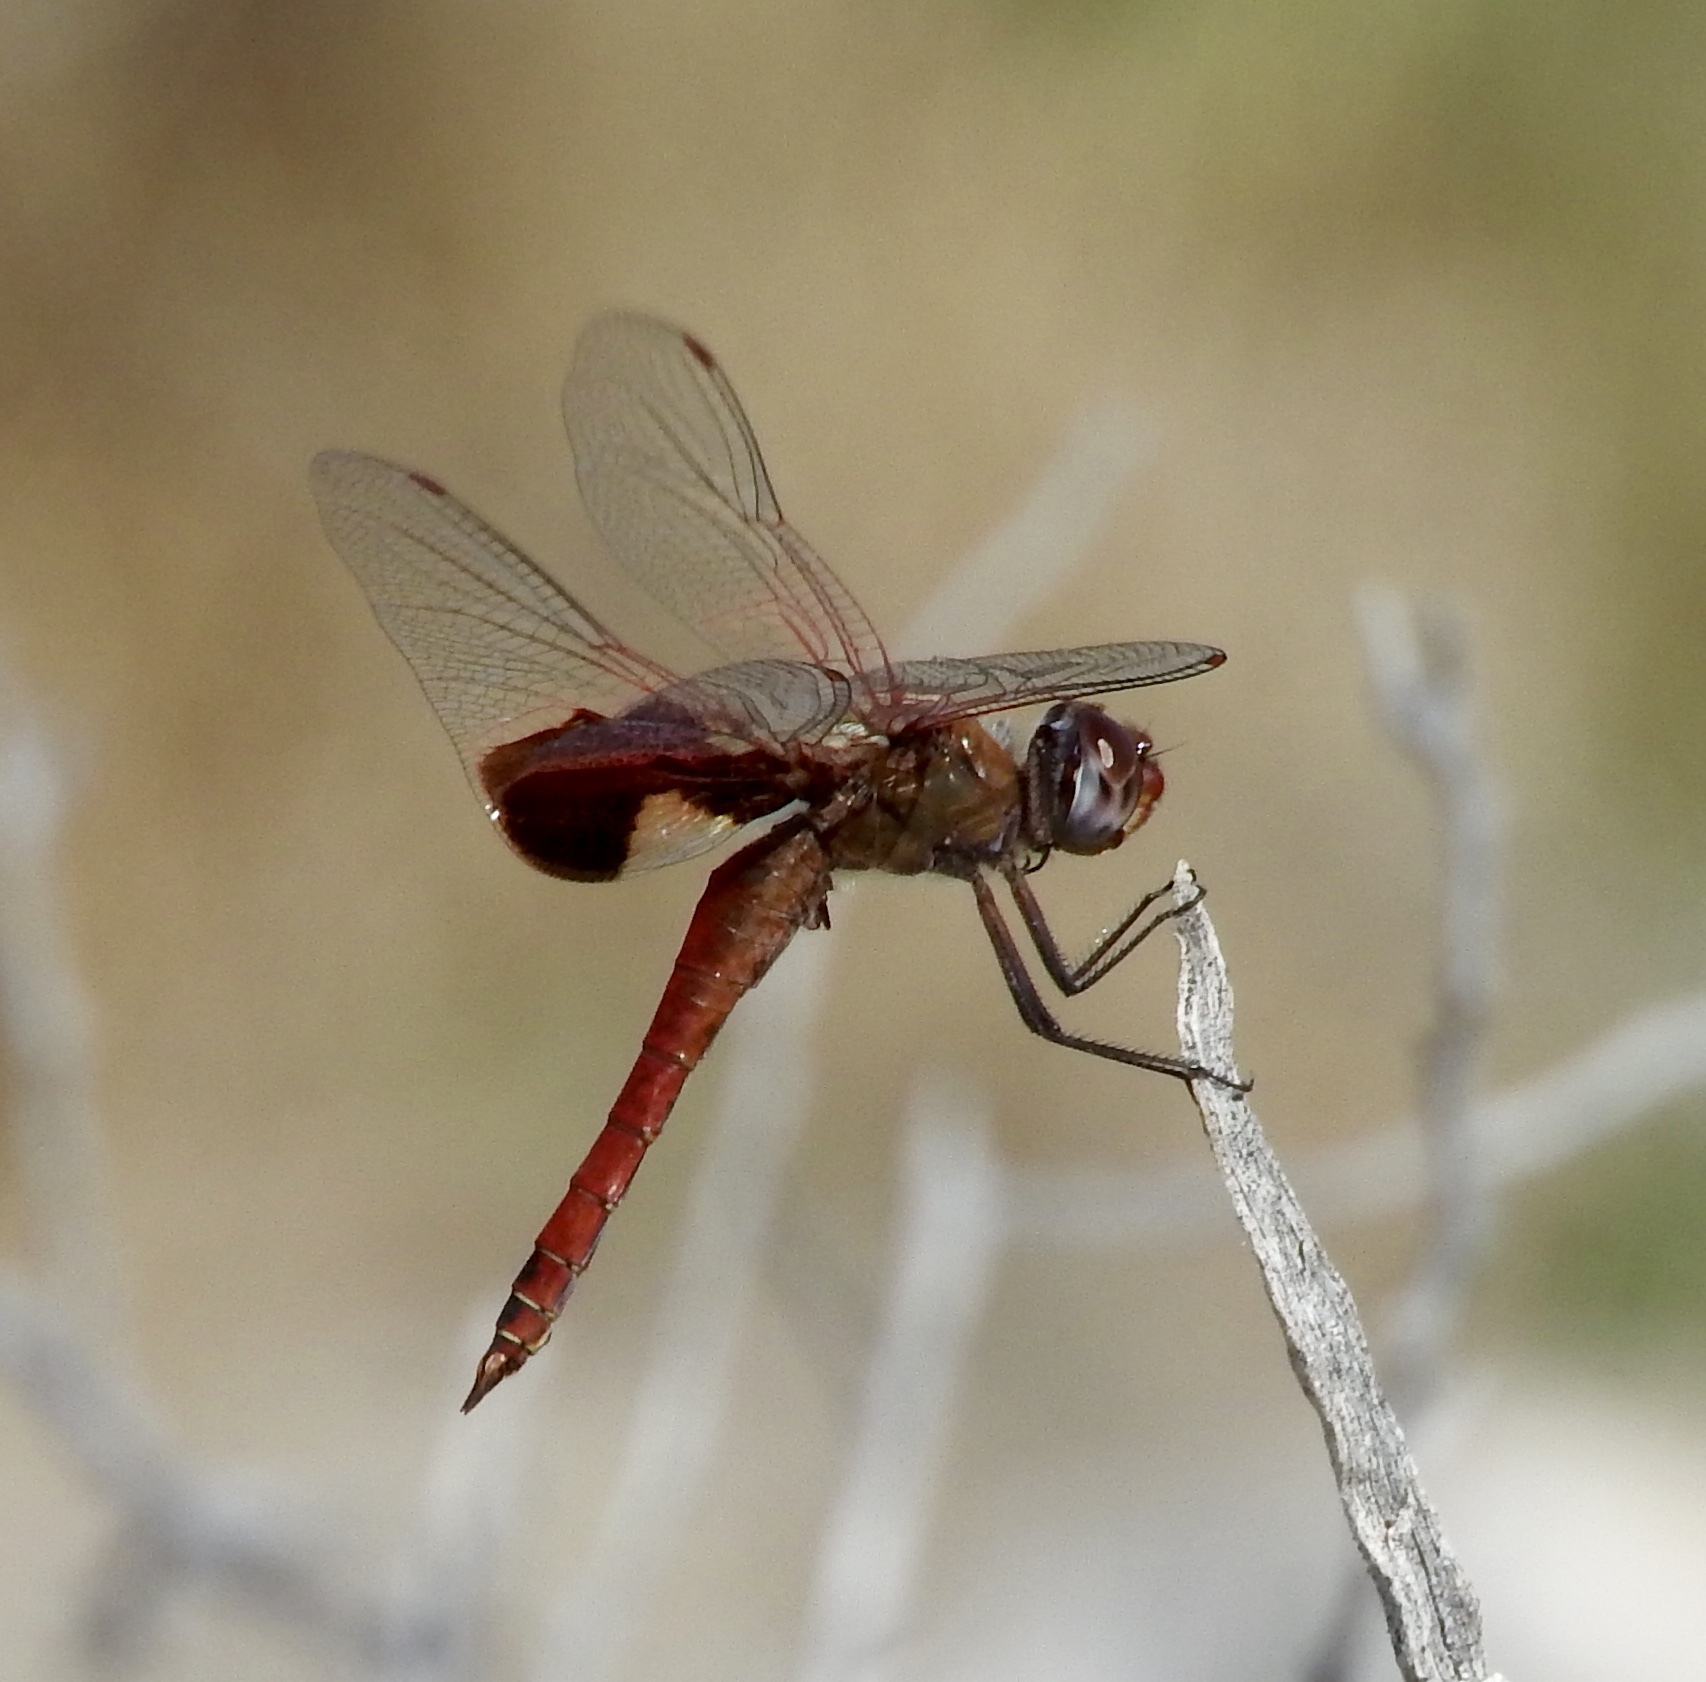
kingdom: Animalia
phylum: Arthropoda
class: Insecta
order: Odonata
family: Libellulidae
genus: Tramea
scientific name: Tramea onusta
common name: Red saddlebags
